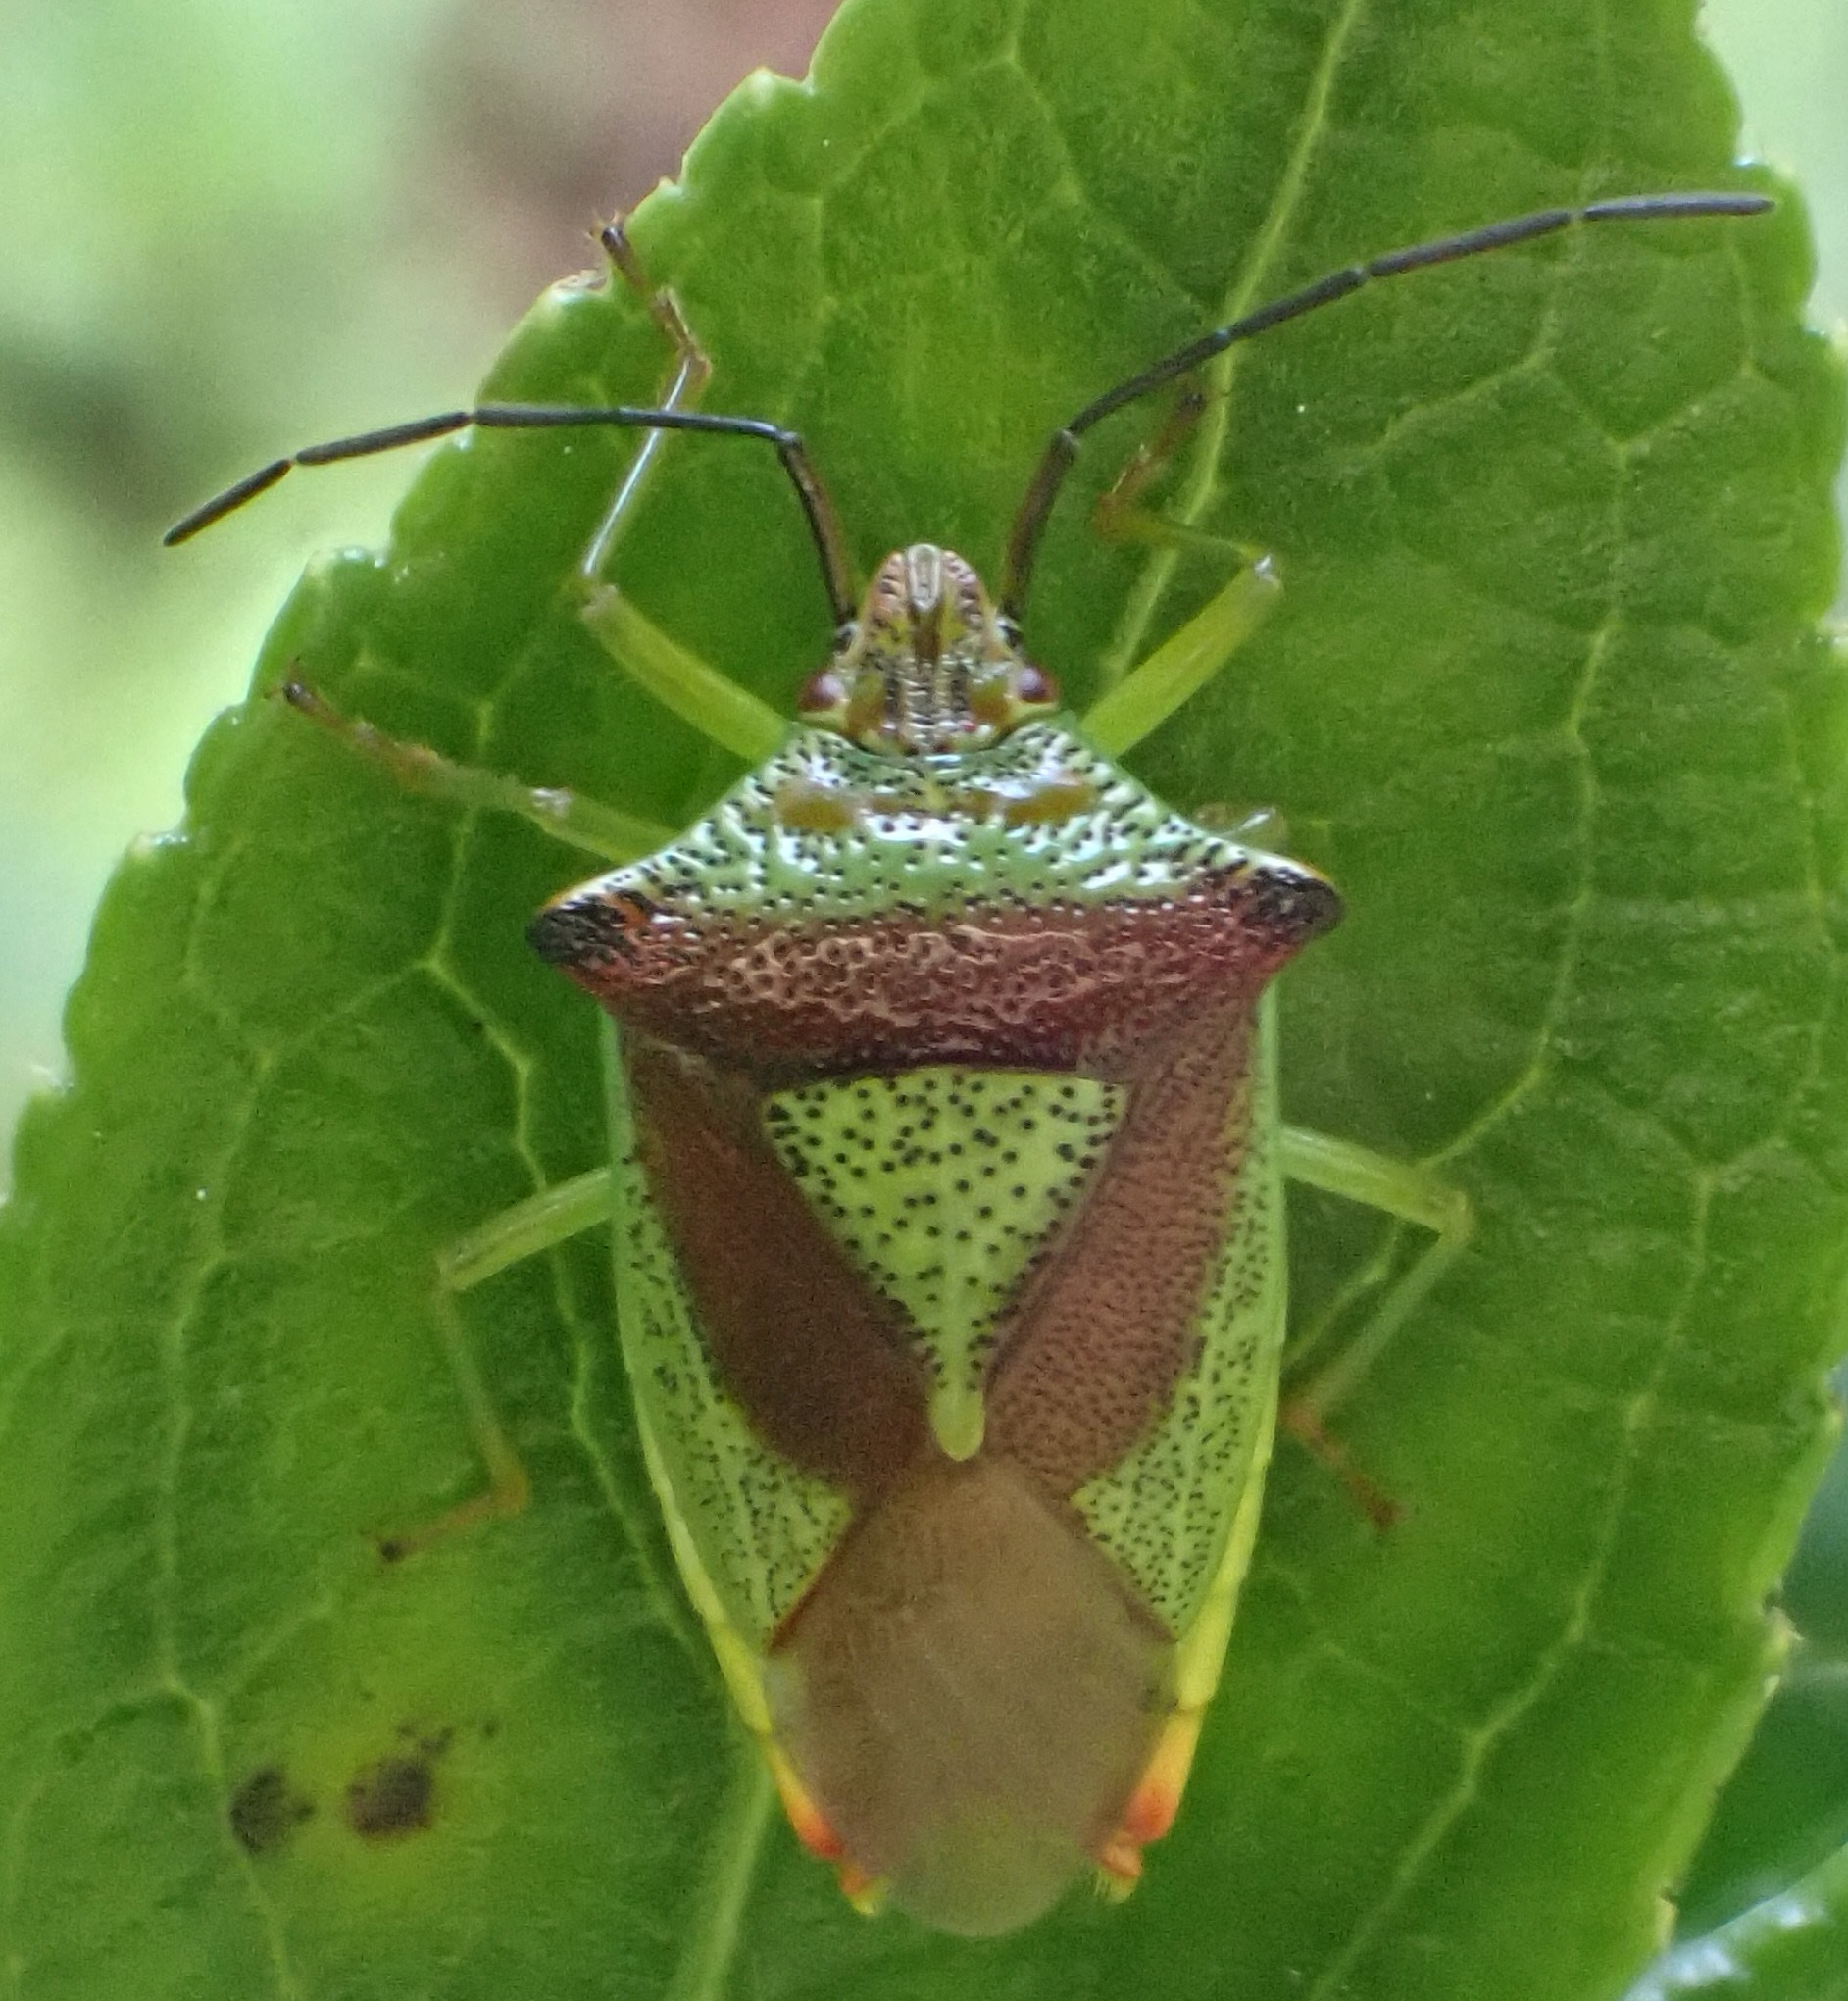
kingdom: Animalia
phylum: Arthropoda
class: Insecta
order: Hemiptera
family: Acanthosomatidae
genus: Acanthosoma
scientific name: Acanthosoma haemorrhoidale
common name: Hawthorn shieldbug
